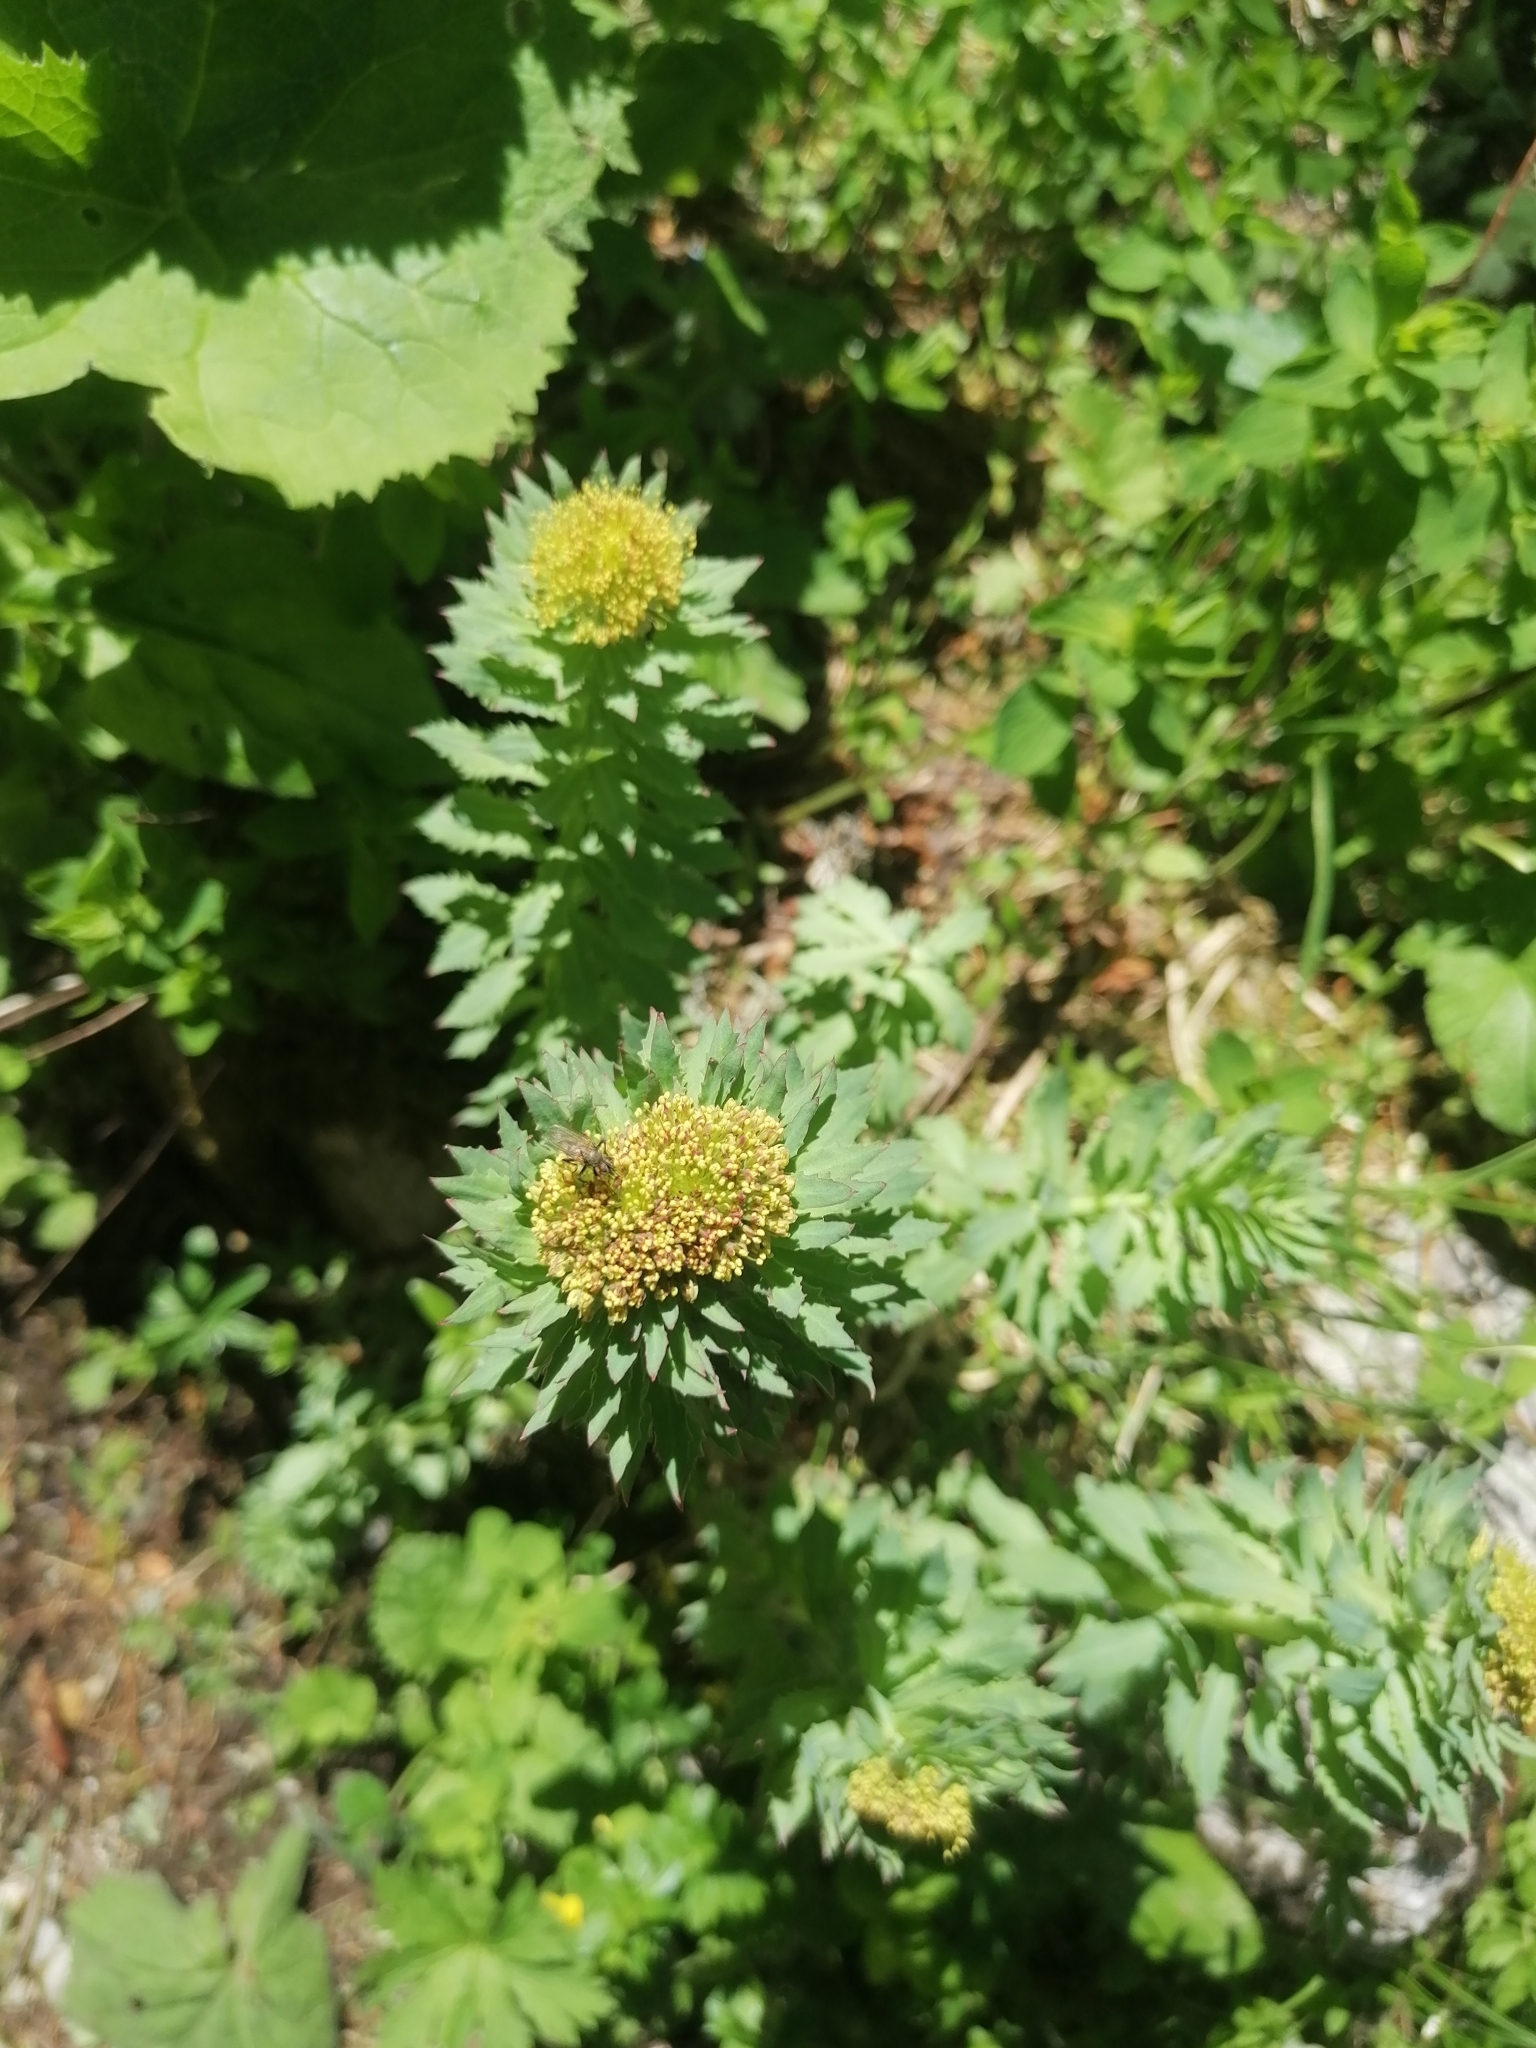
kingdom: Plantae
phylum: Tracheophyta
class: Magnoliopsida
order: Saxifragales
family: Crassulaceae
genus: Rhodiola
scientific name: Rhodiola rosea
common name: Roseroot
